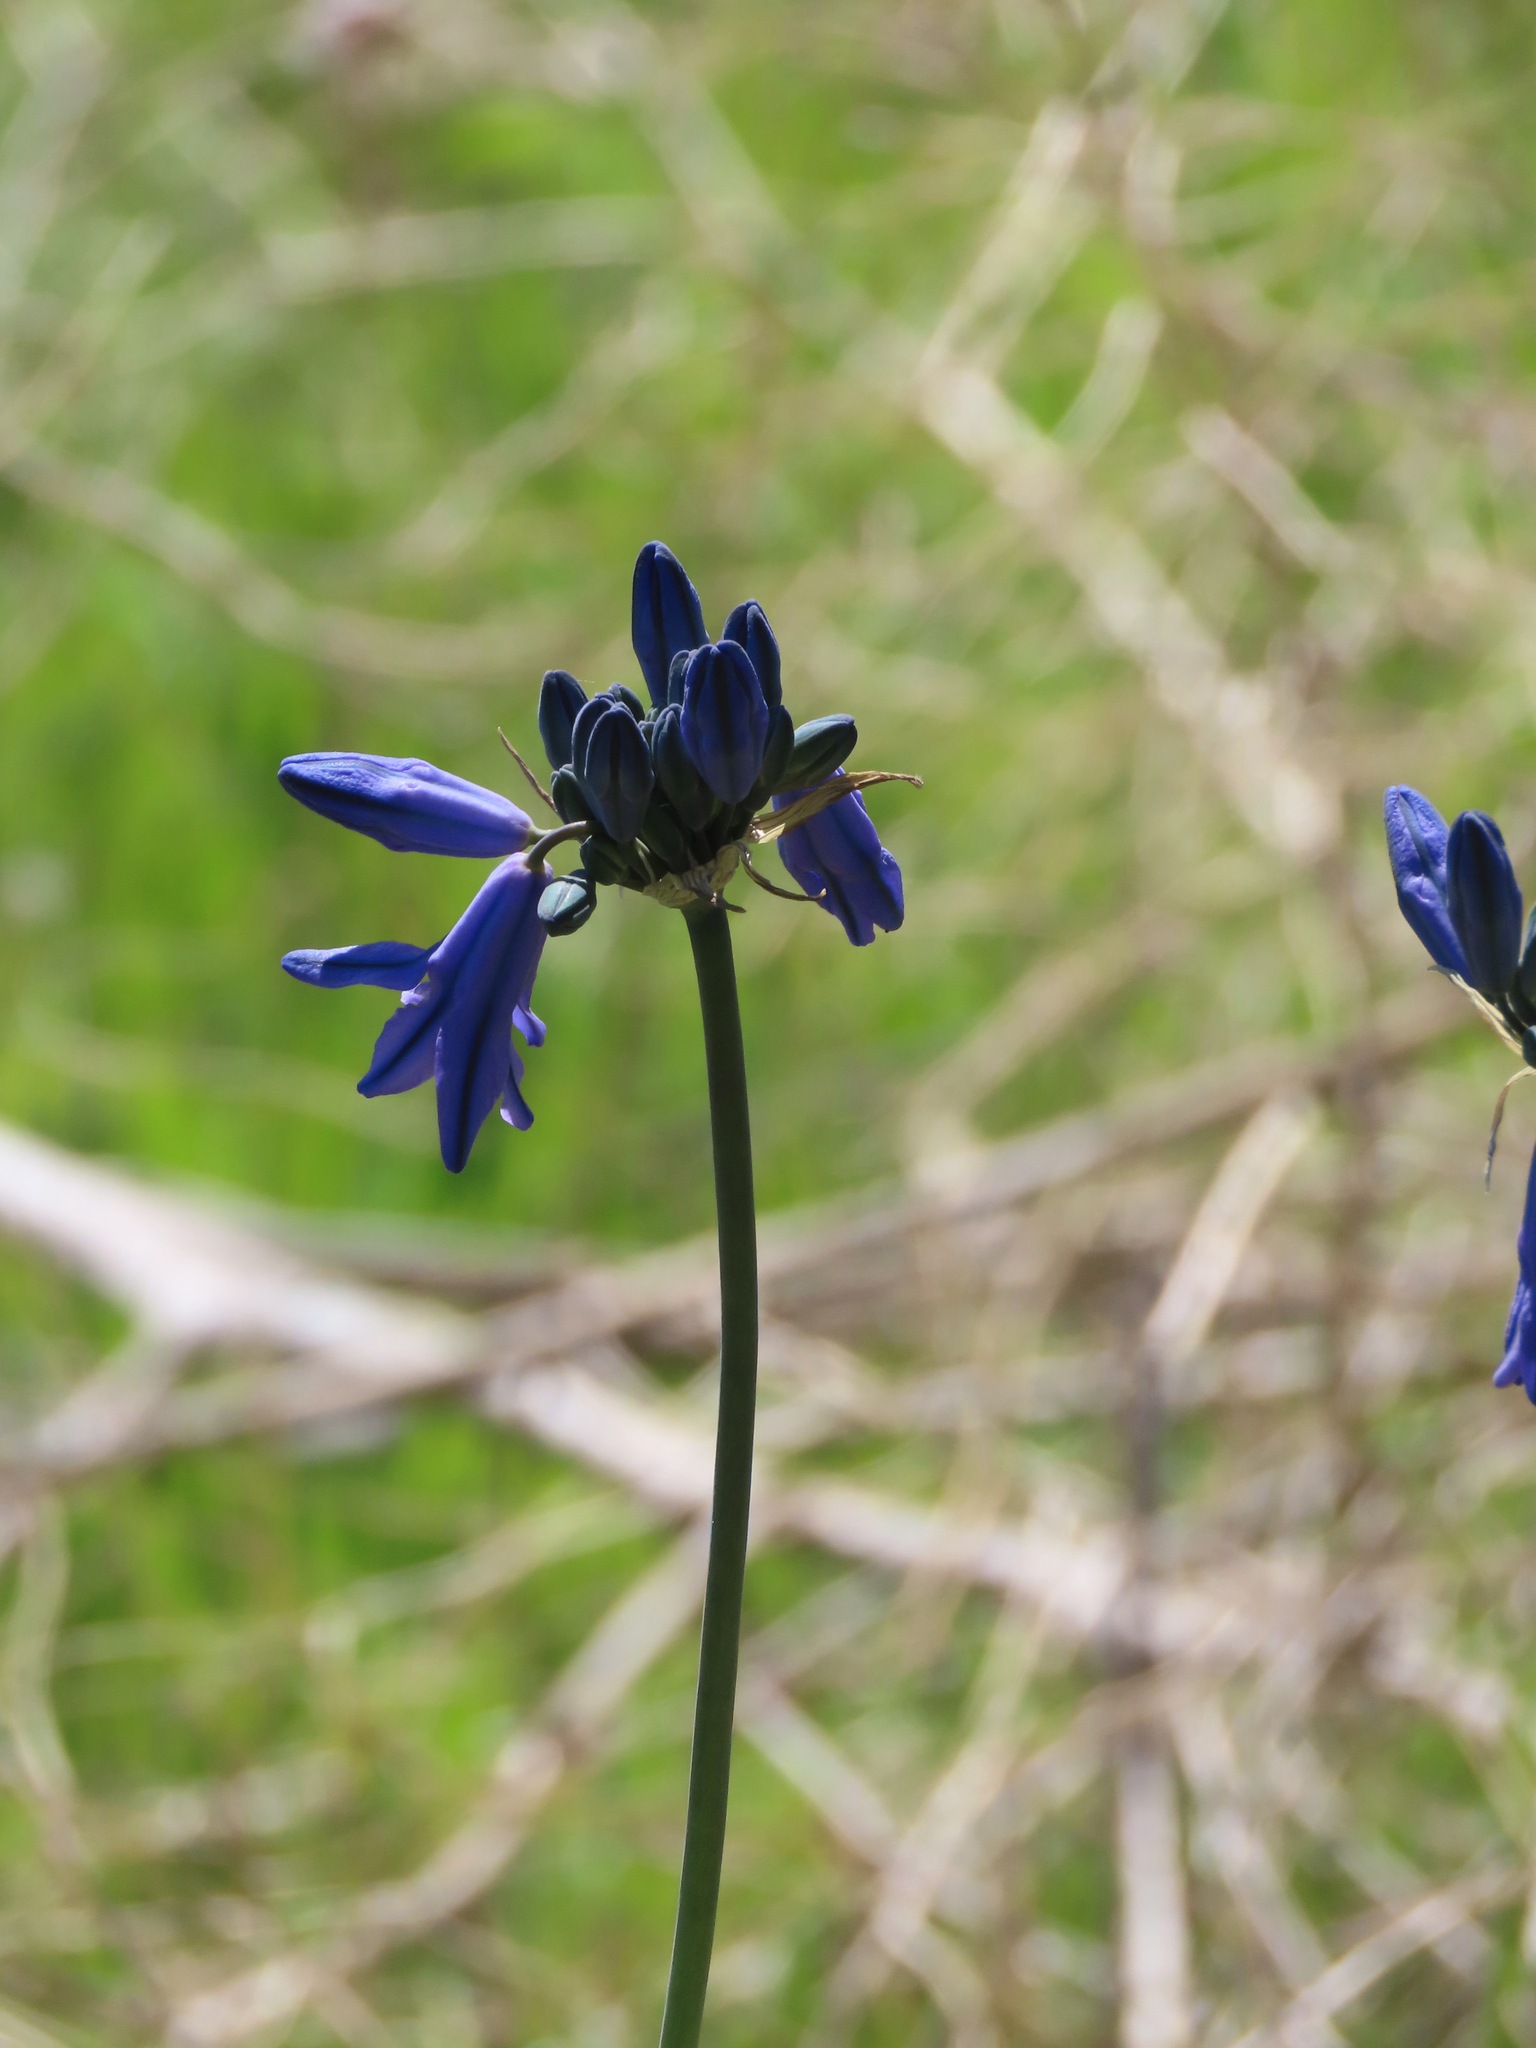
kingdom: Plantae
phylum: Tracheophyta
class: Liliopsida
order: Asparagales
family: Asparagaceae
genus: Triteleia
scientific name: Triteleia grandiflora
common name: Wild hyacinth
